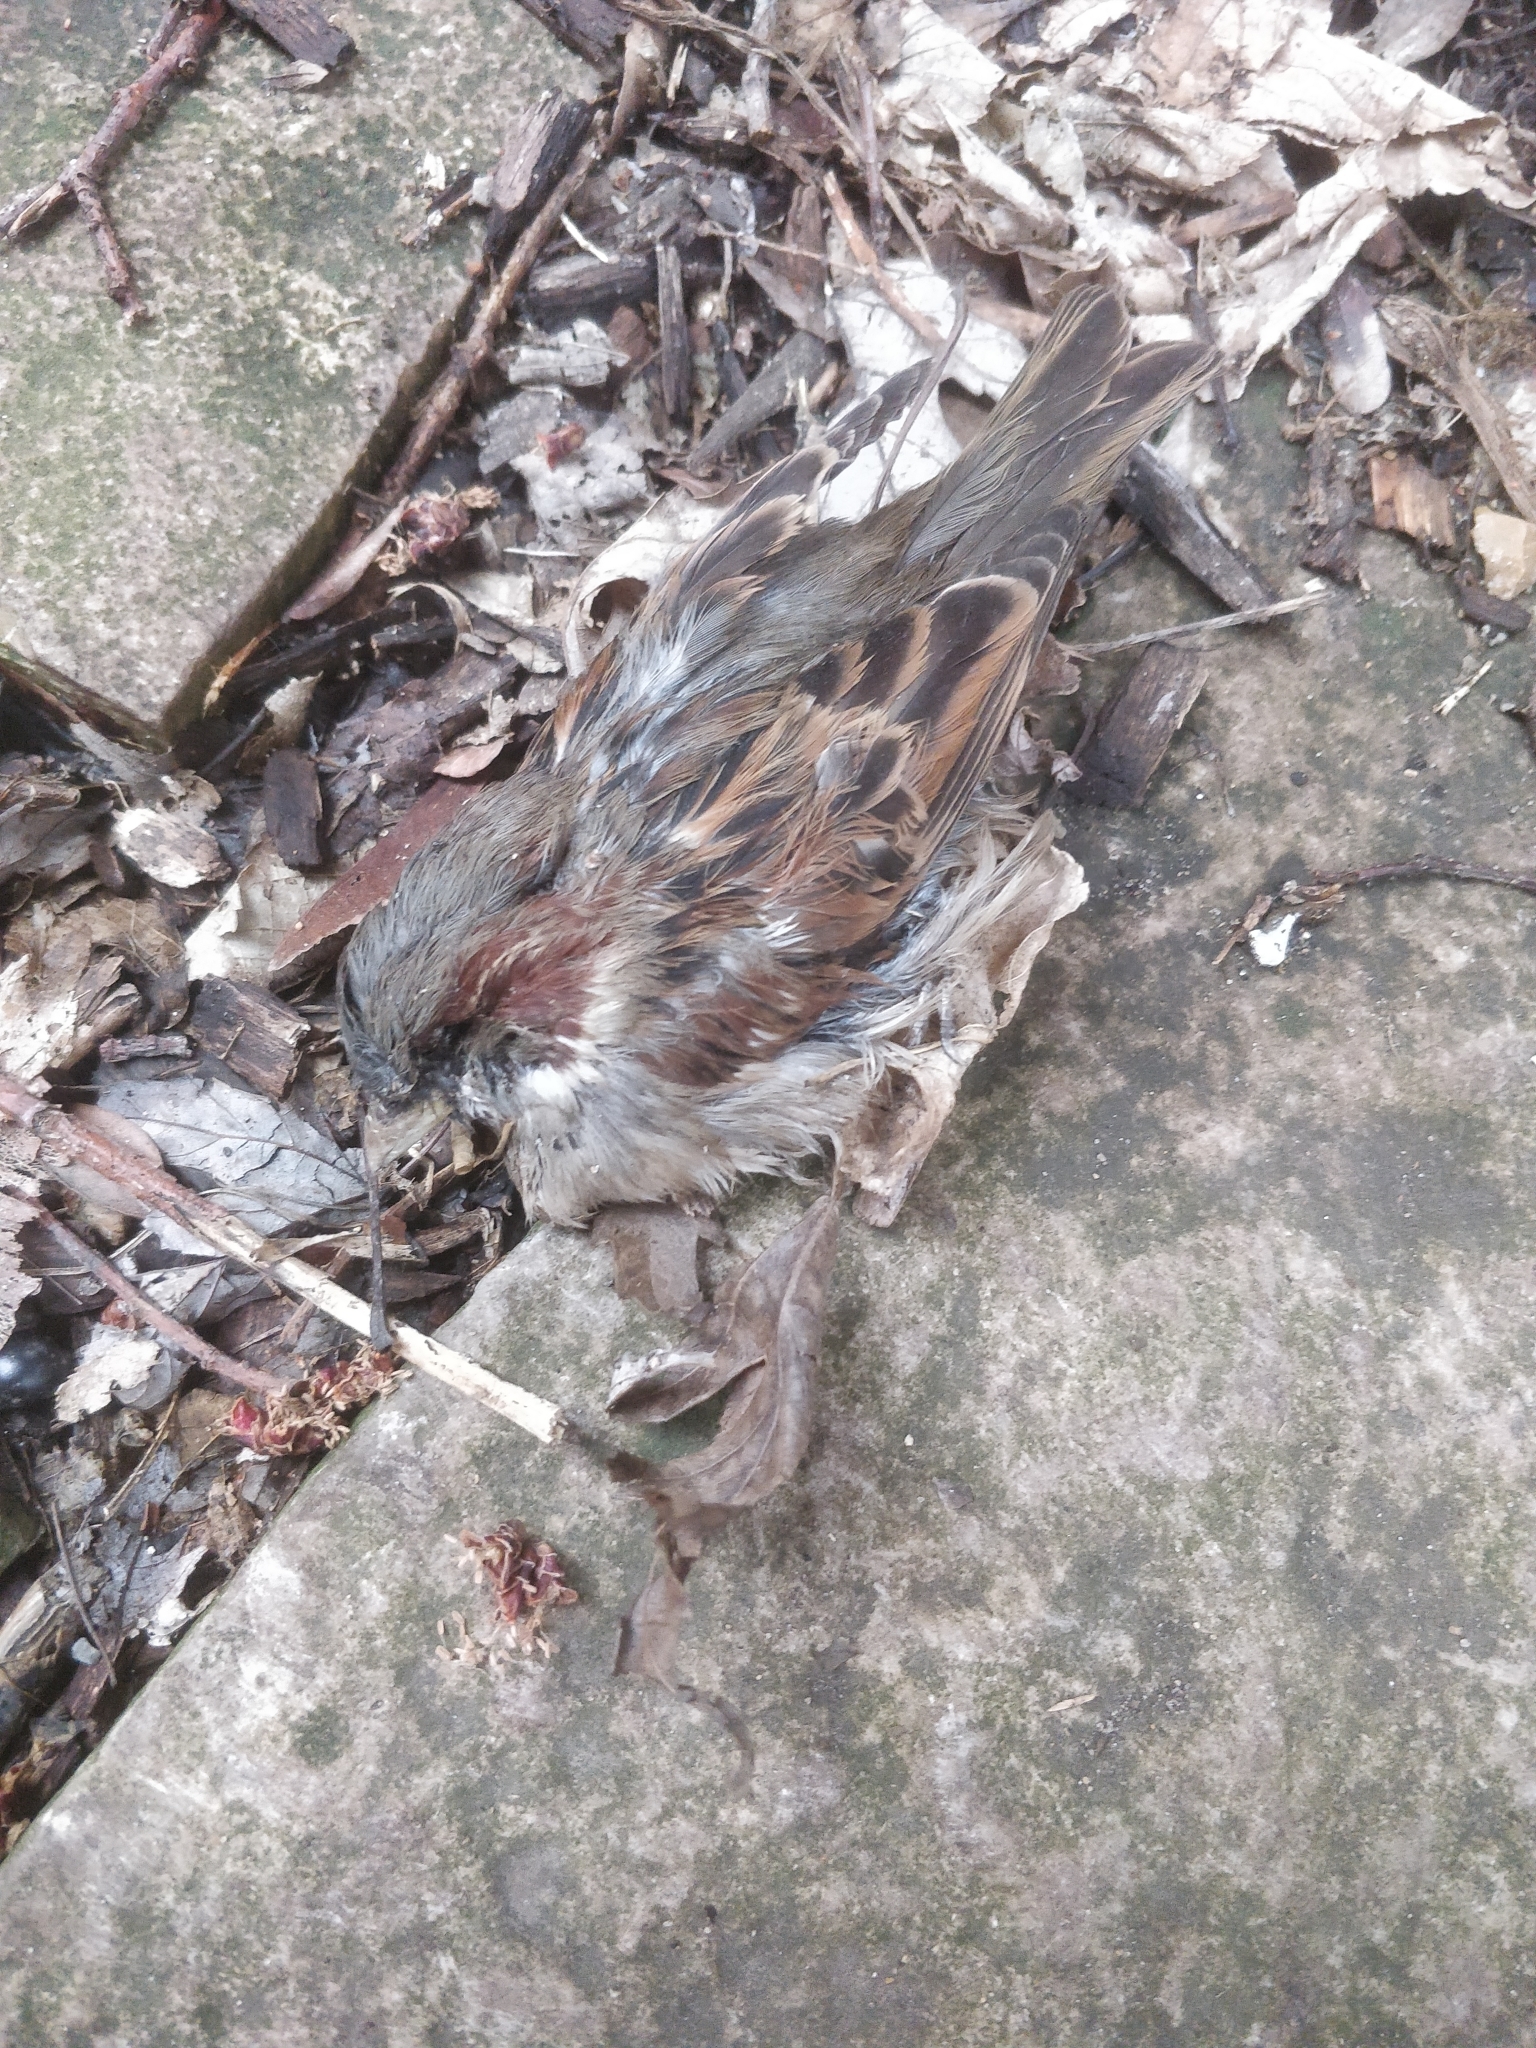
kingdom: Animalia
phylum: Chordata
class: Aves
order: Passeriformes
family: Passeridae
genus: Passer
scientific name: Passer domesticus
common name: House sparrow
